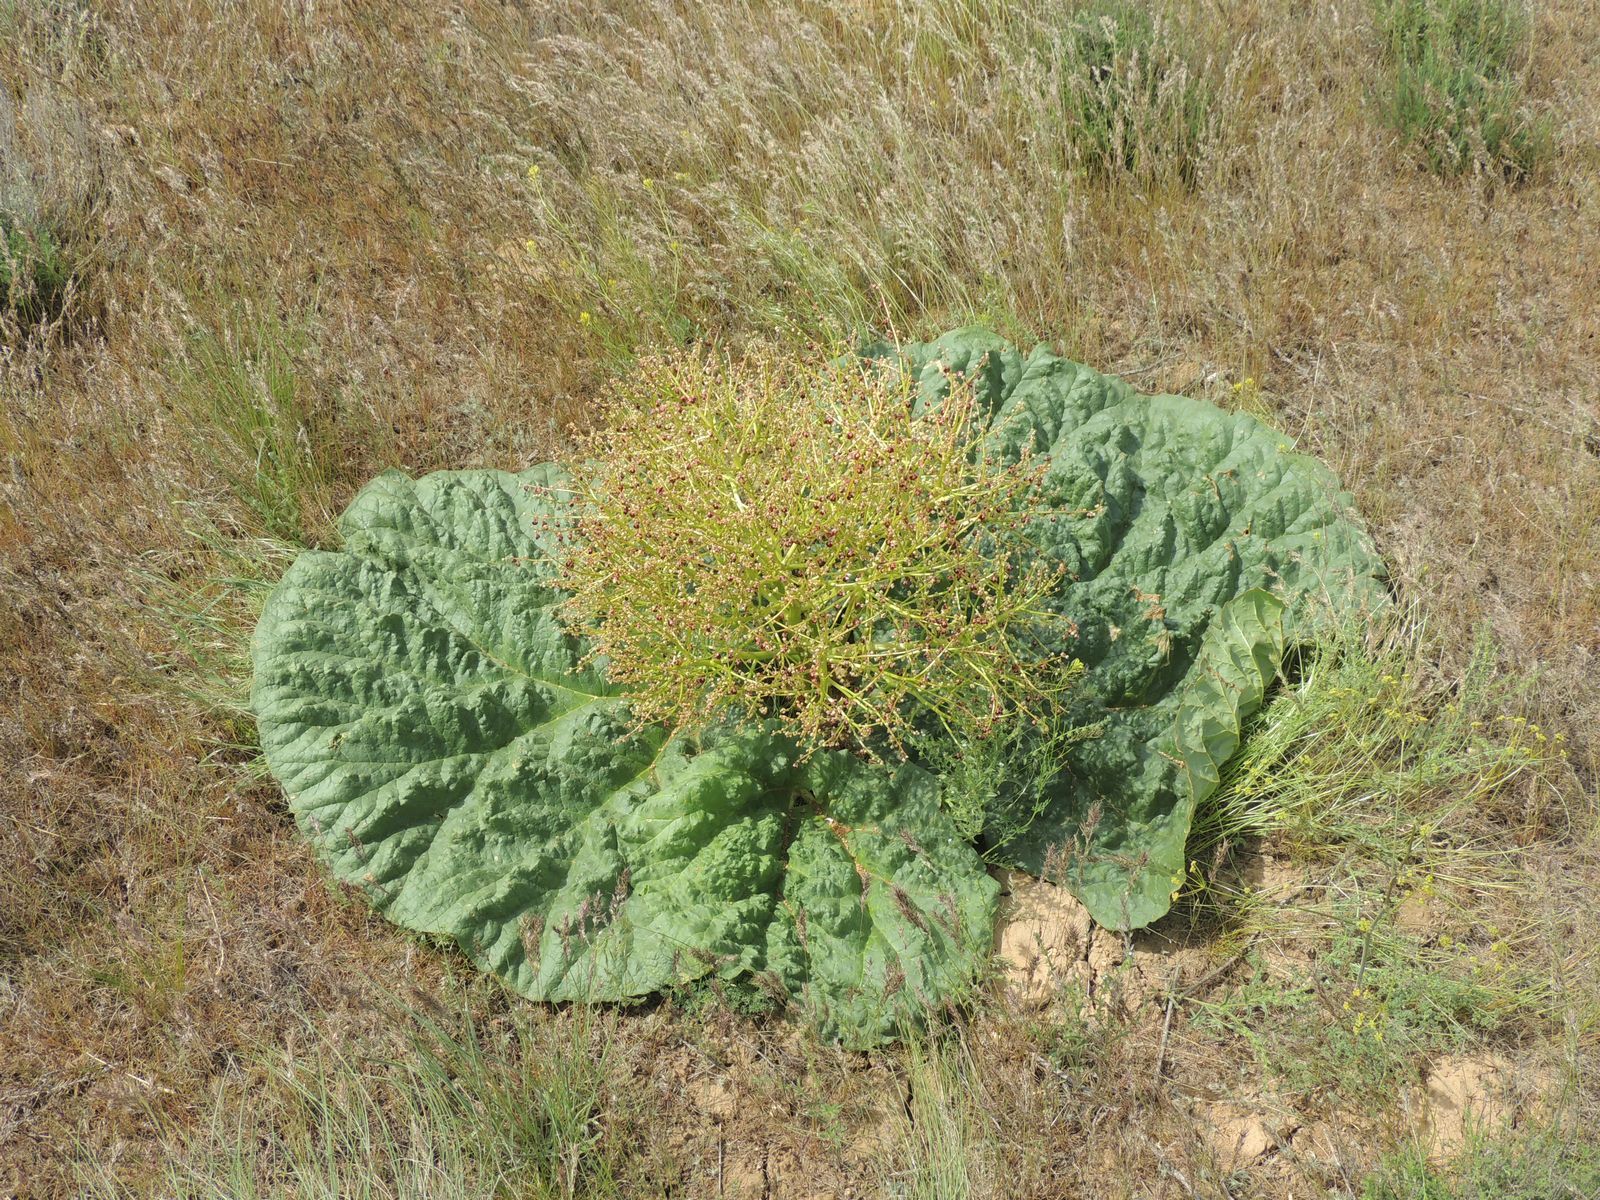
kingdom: Plantae
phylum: Tracheophyta
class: Magnoliopsida
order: Caryophyllales
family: Polygonaceae
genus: Rheum
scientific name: Rheum tataricum
